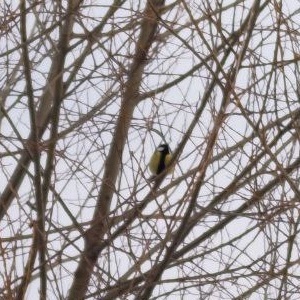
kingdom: Animalia
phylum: Chordata
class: Aves
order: Passeriformes
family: Paridae
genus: Parus
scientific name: Parus major
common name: Great tit
